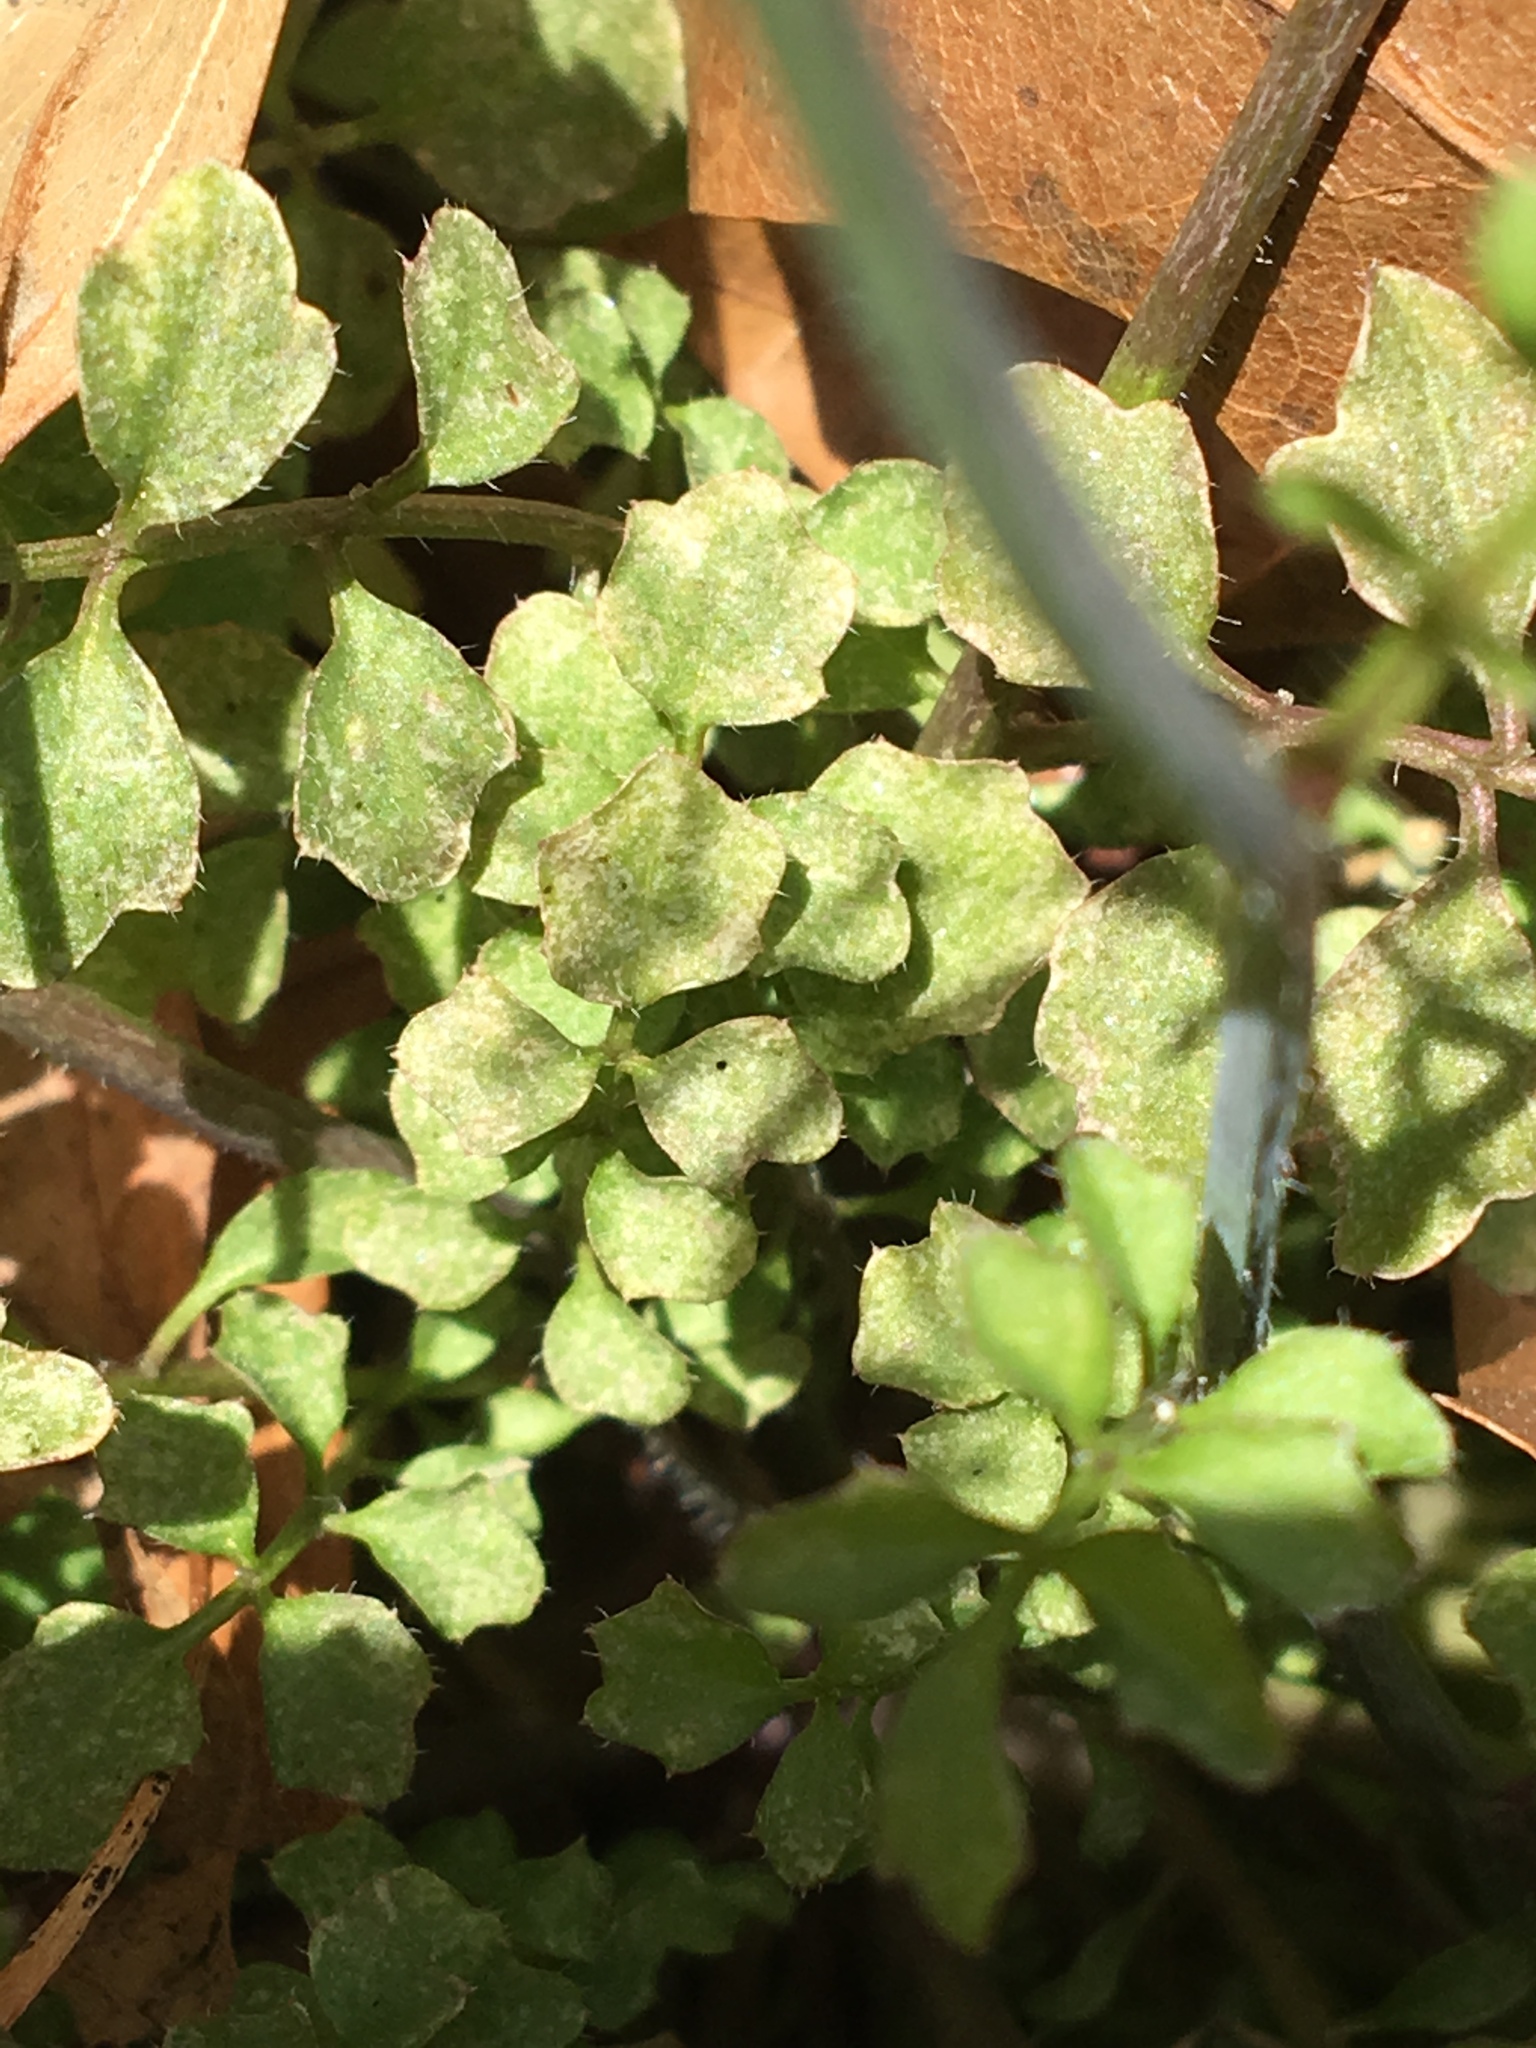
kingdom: Plantae
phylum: Tracheophyta
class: Magnoliopsida
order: Brassicales
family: Brassicaceae
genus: Cardamine
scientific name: Cardamine hirsuta
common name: Hairy bittercress
